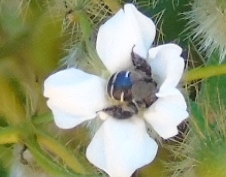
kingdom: Animalia
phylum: Arthropoda
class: Insecta
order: Hymenoptera
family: Apidae
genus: Ancyloscelis
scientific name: Ancyloscelis
